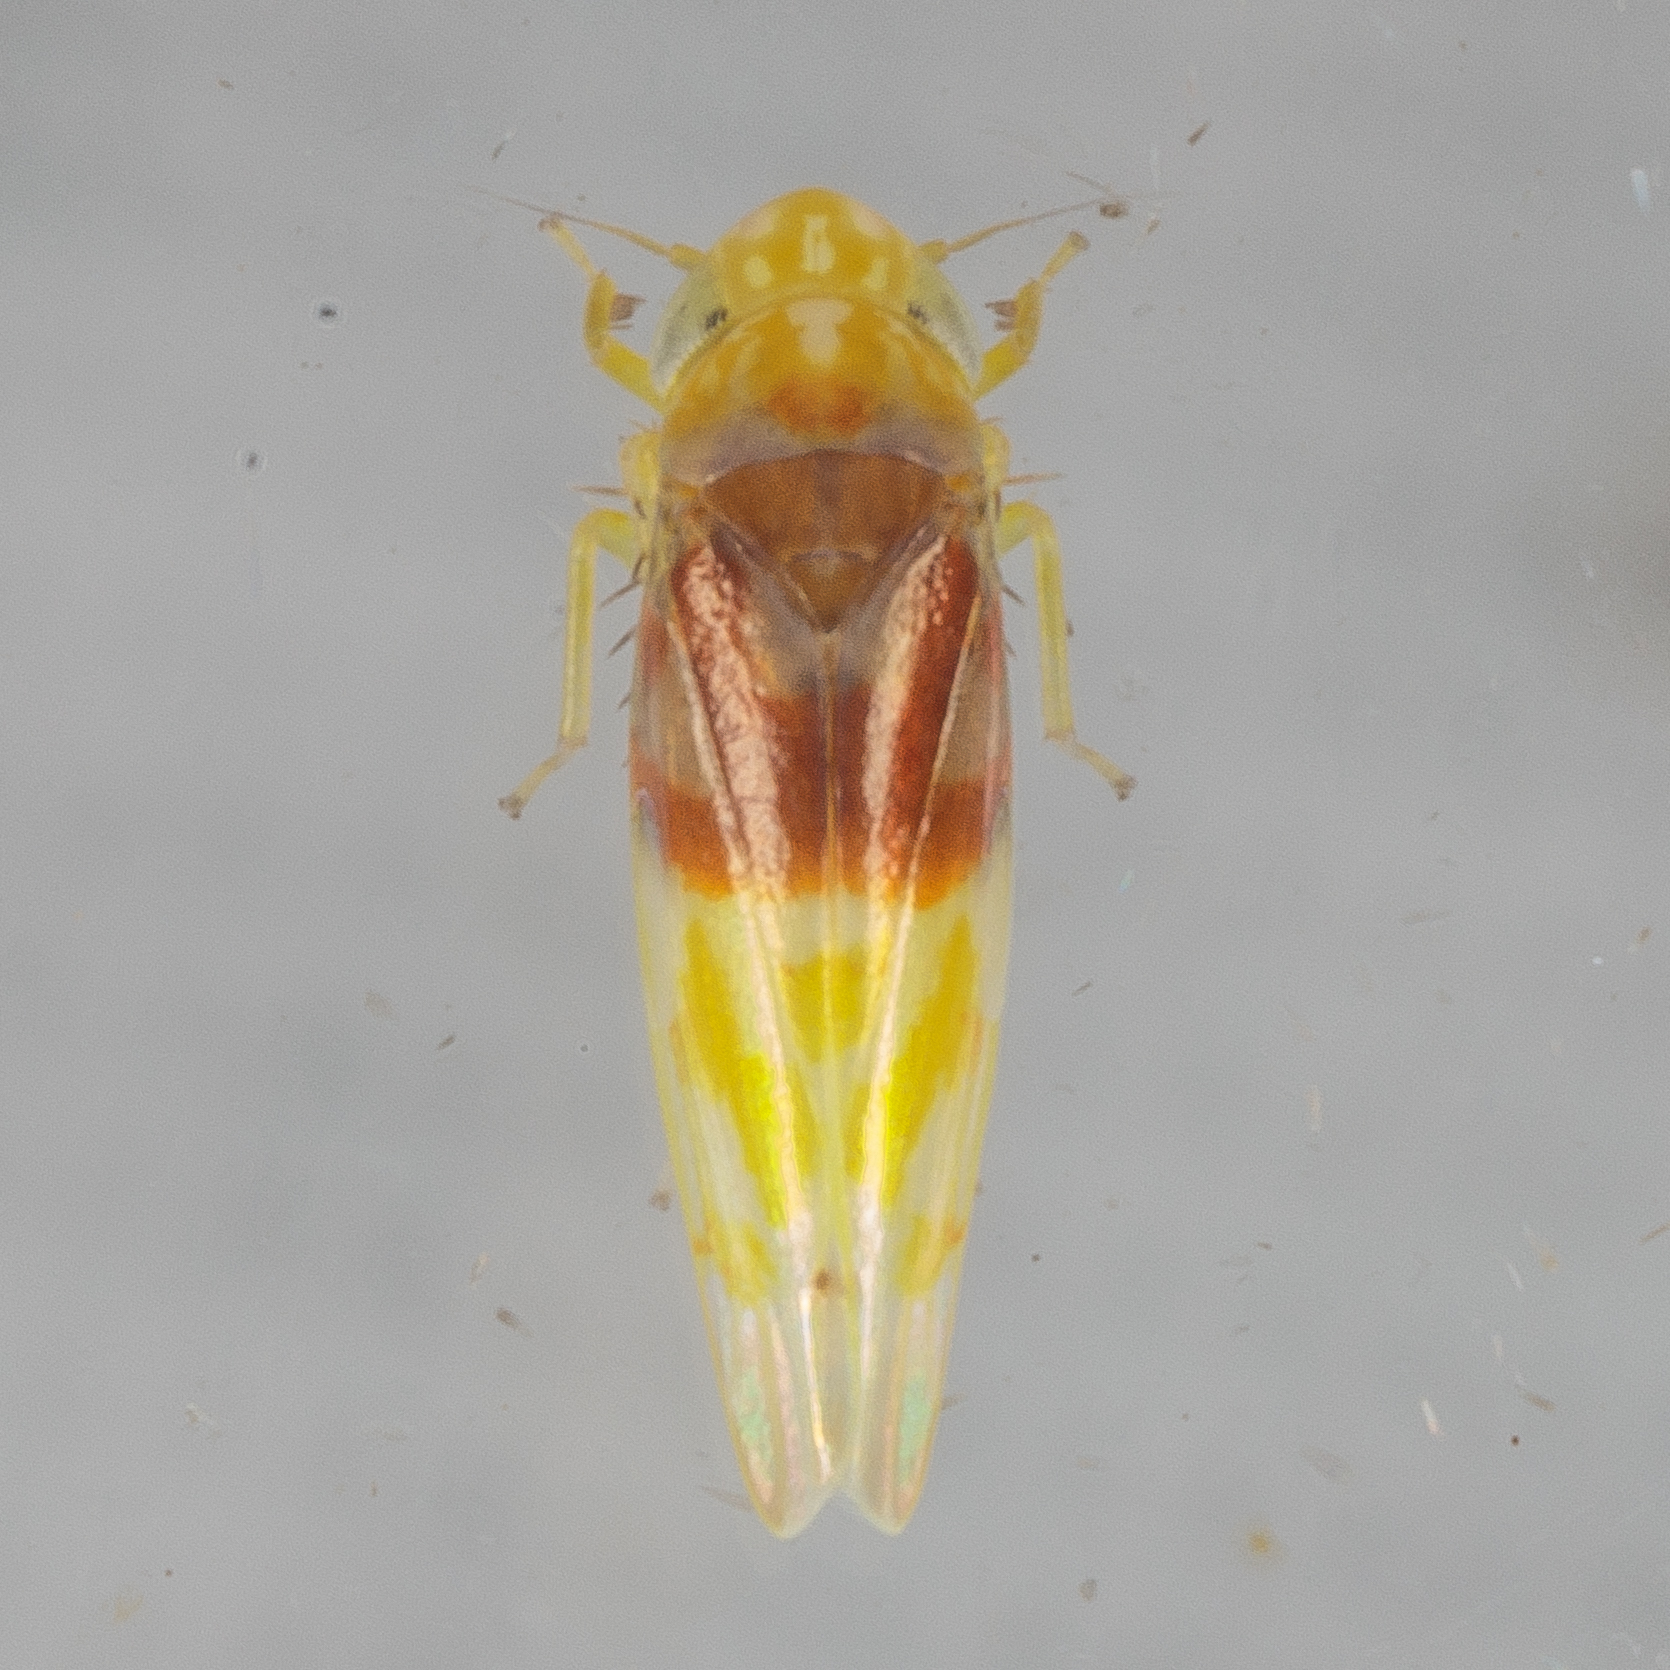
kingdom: Animalia
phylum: Arthropoda
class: Insecta
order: Hemiptera
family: Cicadellidae
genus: Eratoneura
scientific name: Eratoneura affinis
